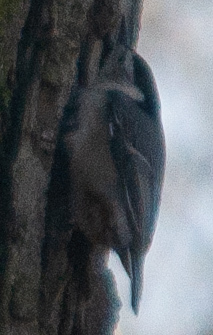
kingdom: Animalia
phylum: Chordata
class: Aves
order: Passeriformes
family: Sittidae
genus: Sitta
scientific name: Sitta carolinensis
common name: White-breasted nuthatch
